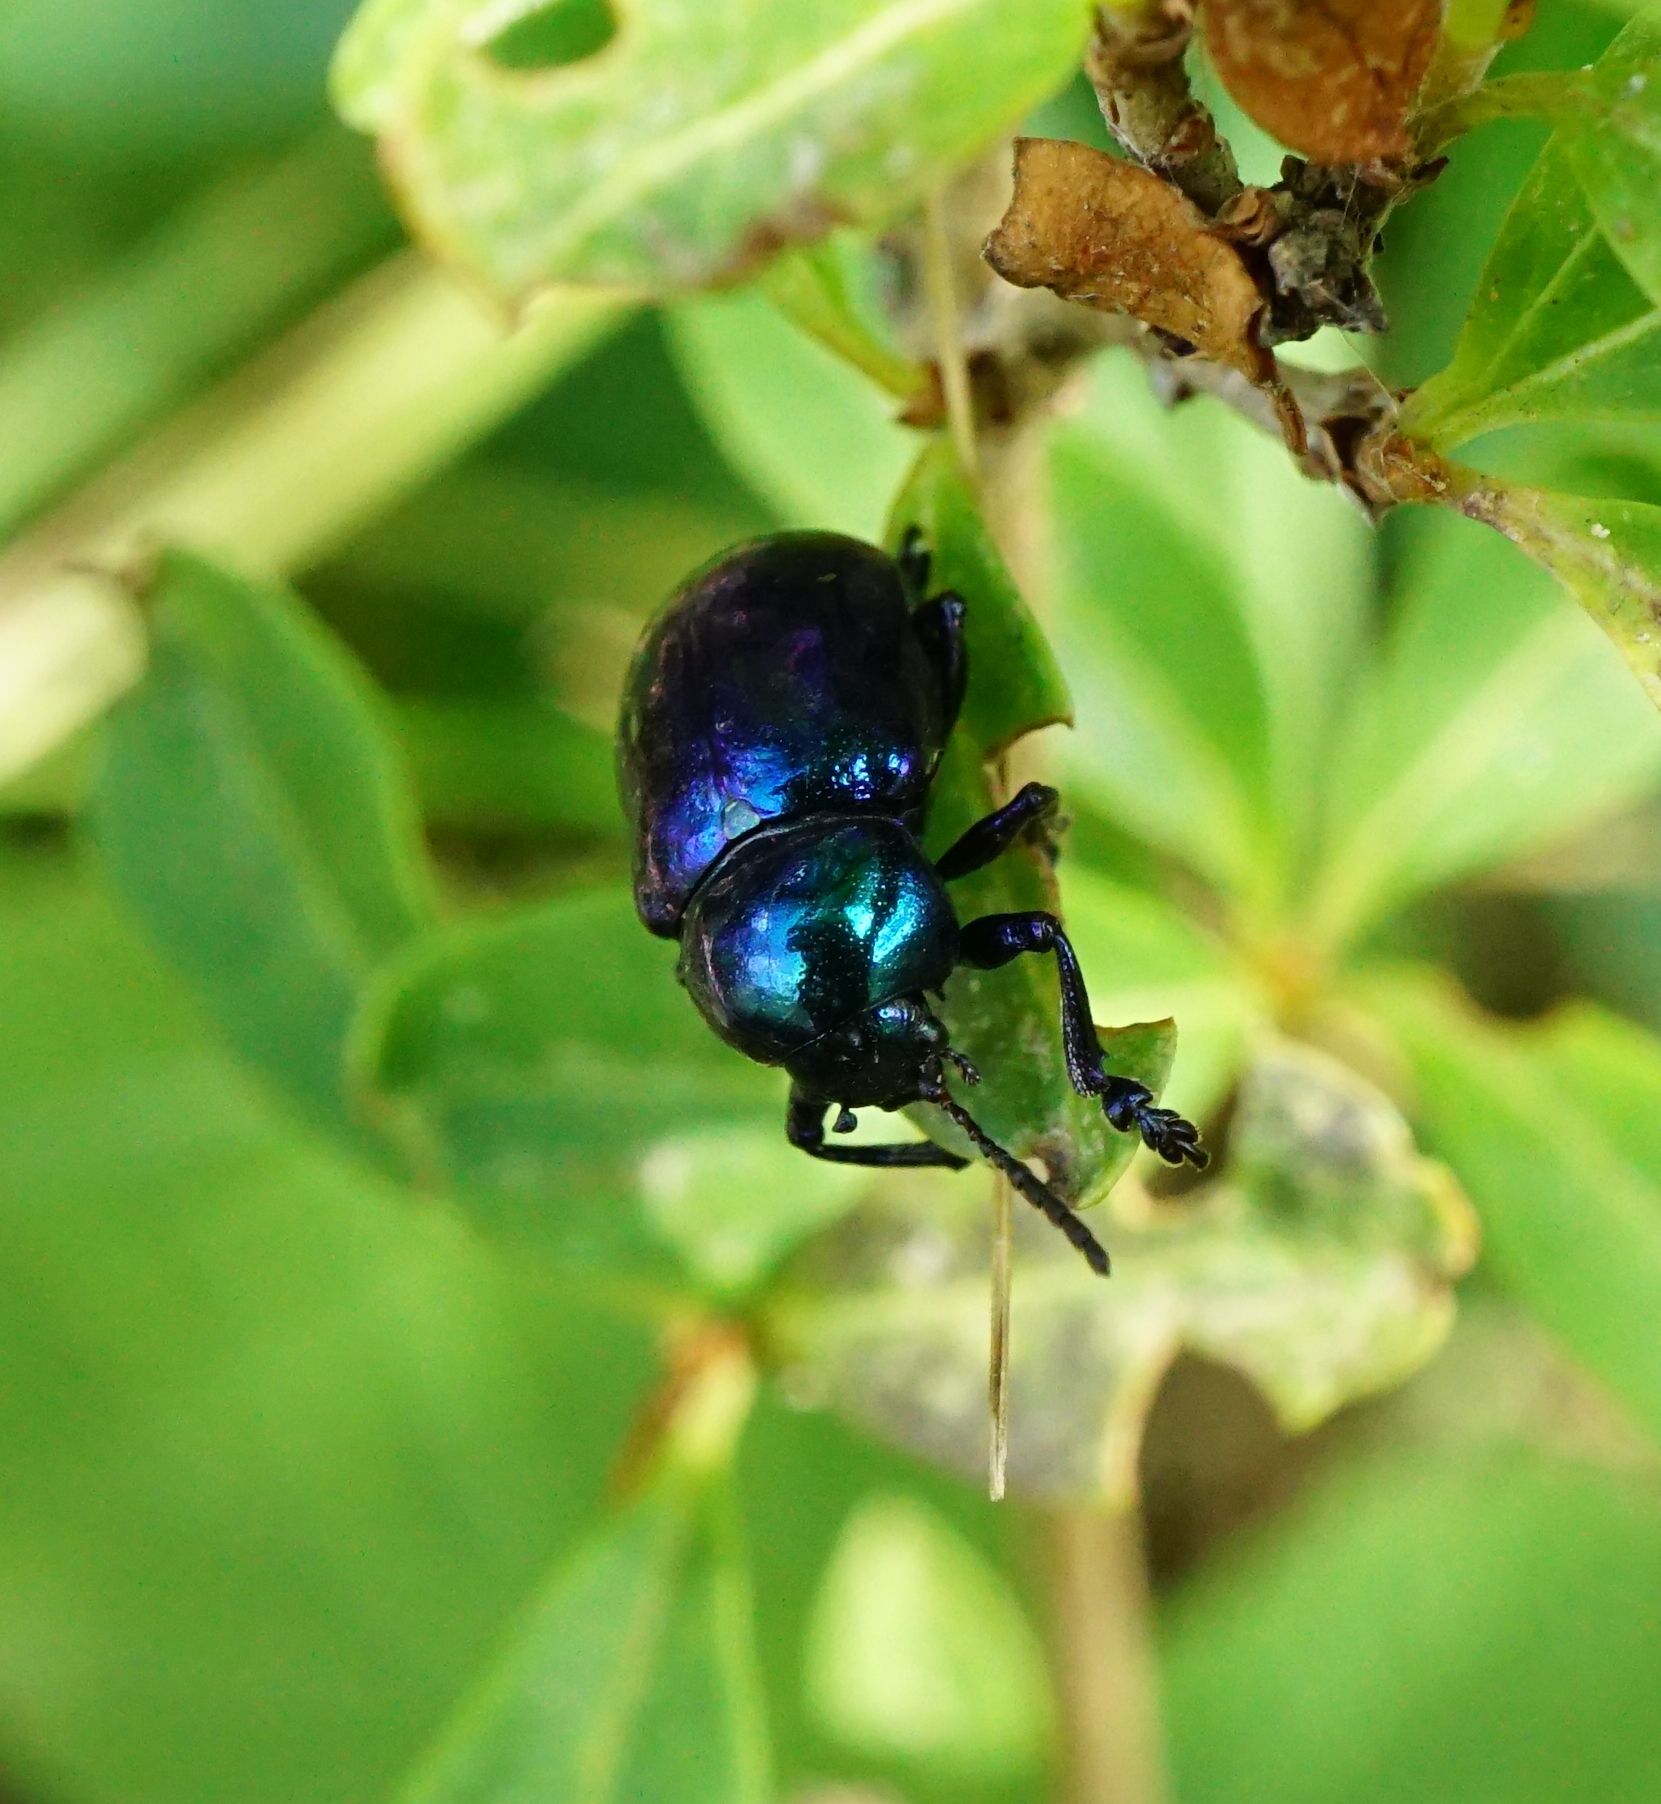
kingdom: Animalia
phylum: Arthropoda
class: Insecta
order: Coleoptera
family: Chrysomelidae
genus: Chrysochus
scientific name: Chrysochus asclepiadeus
